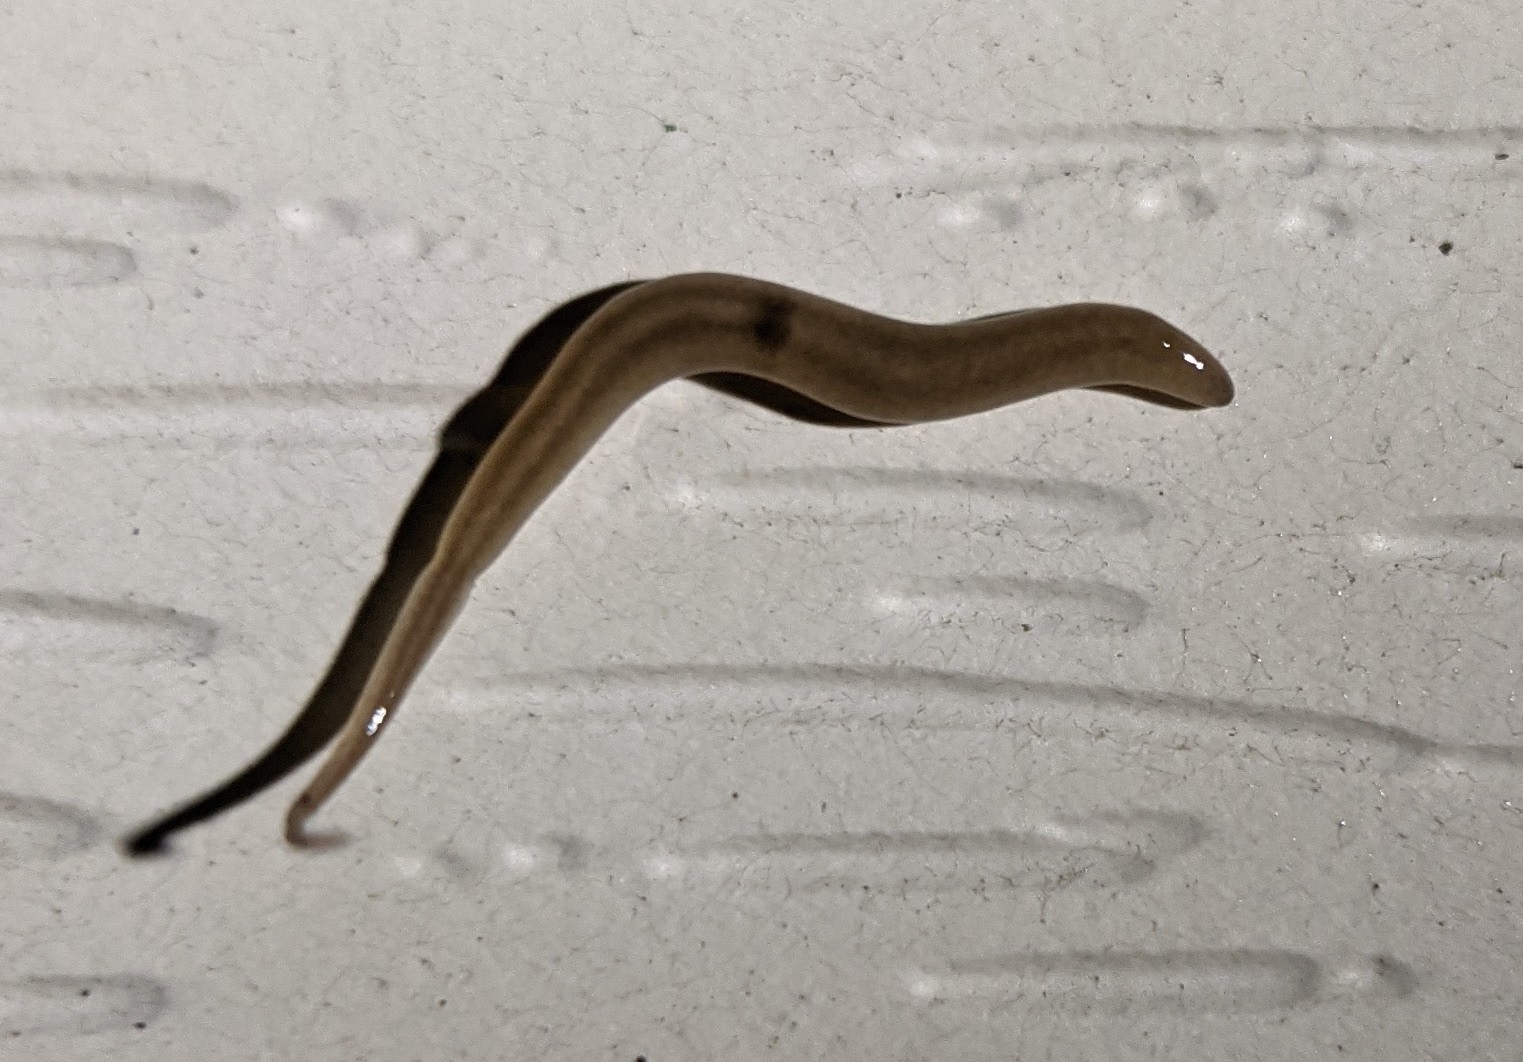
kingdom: Animalia
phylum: Platyhelminthes
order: Tricladida
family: Geoplanidae
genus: Rhynchodemus
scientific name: Rhynchodemus sylvaticus
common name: A flatworm
